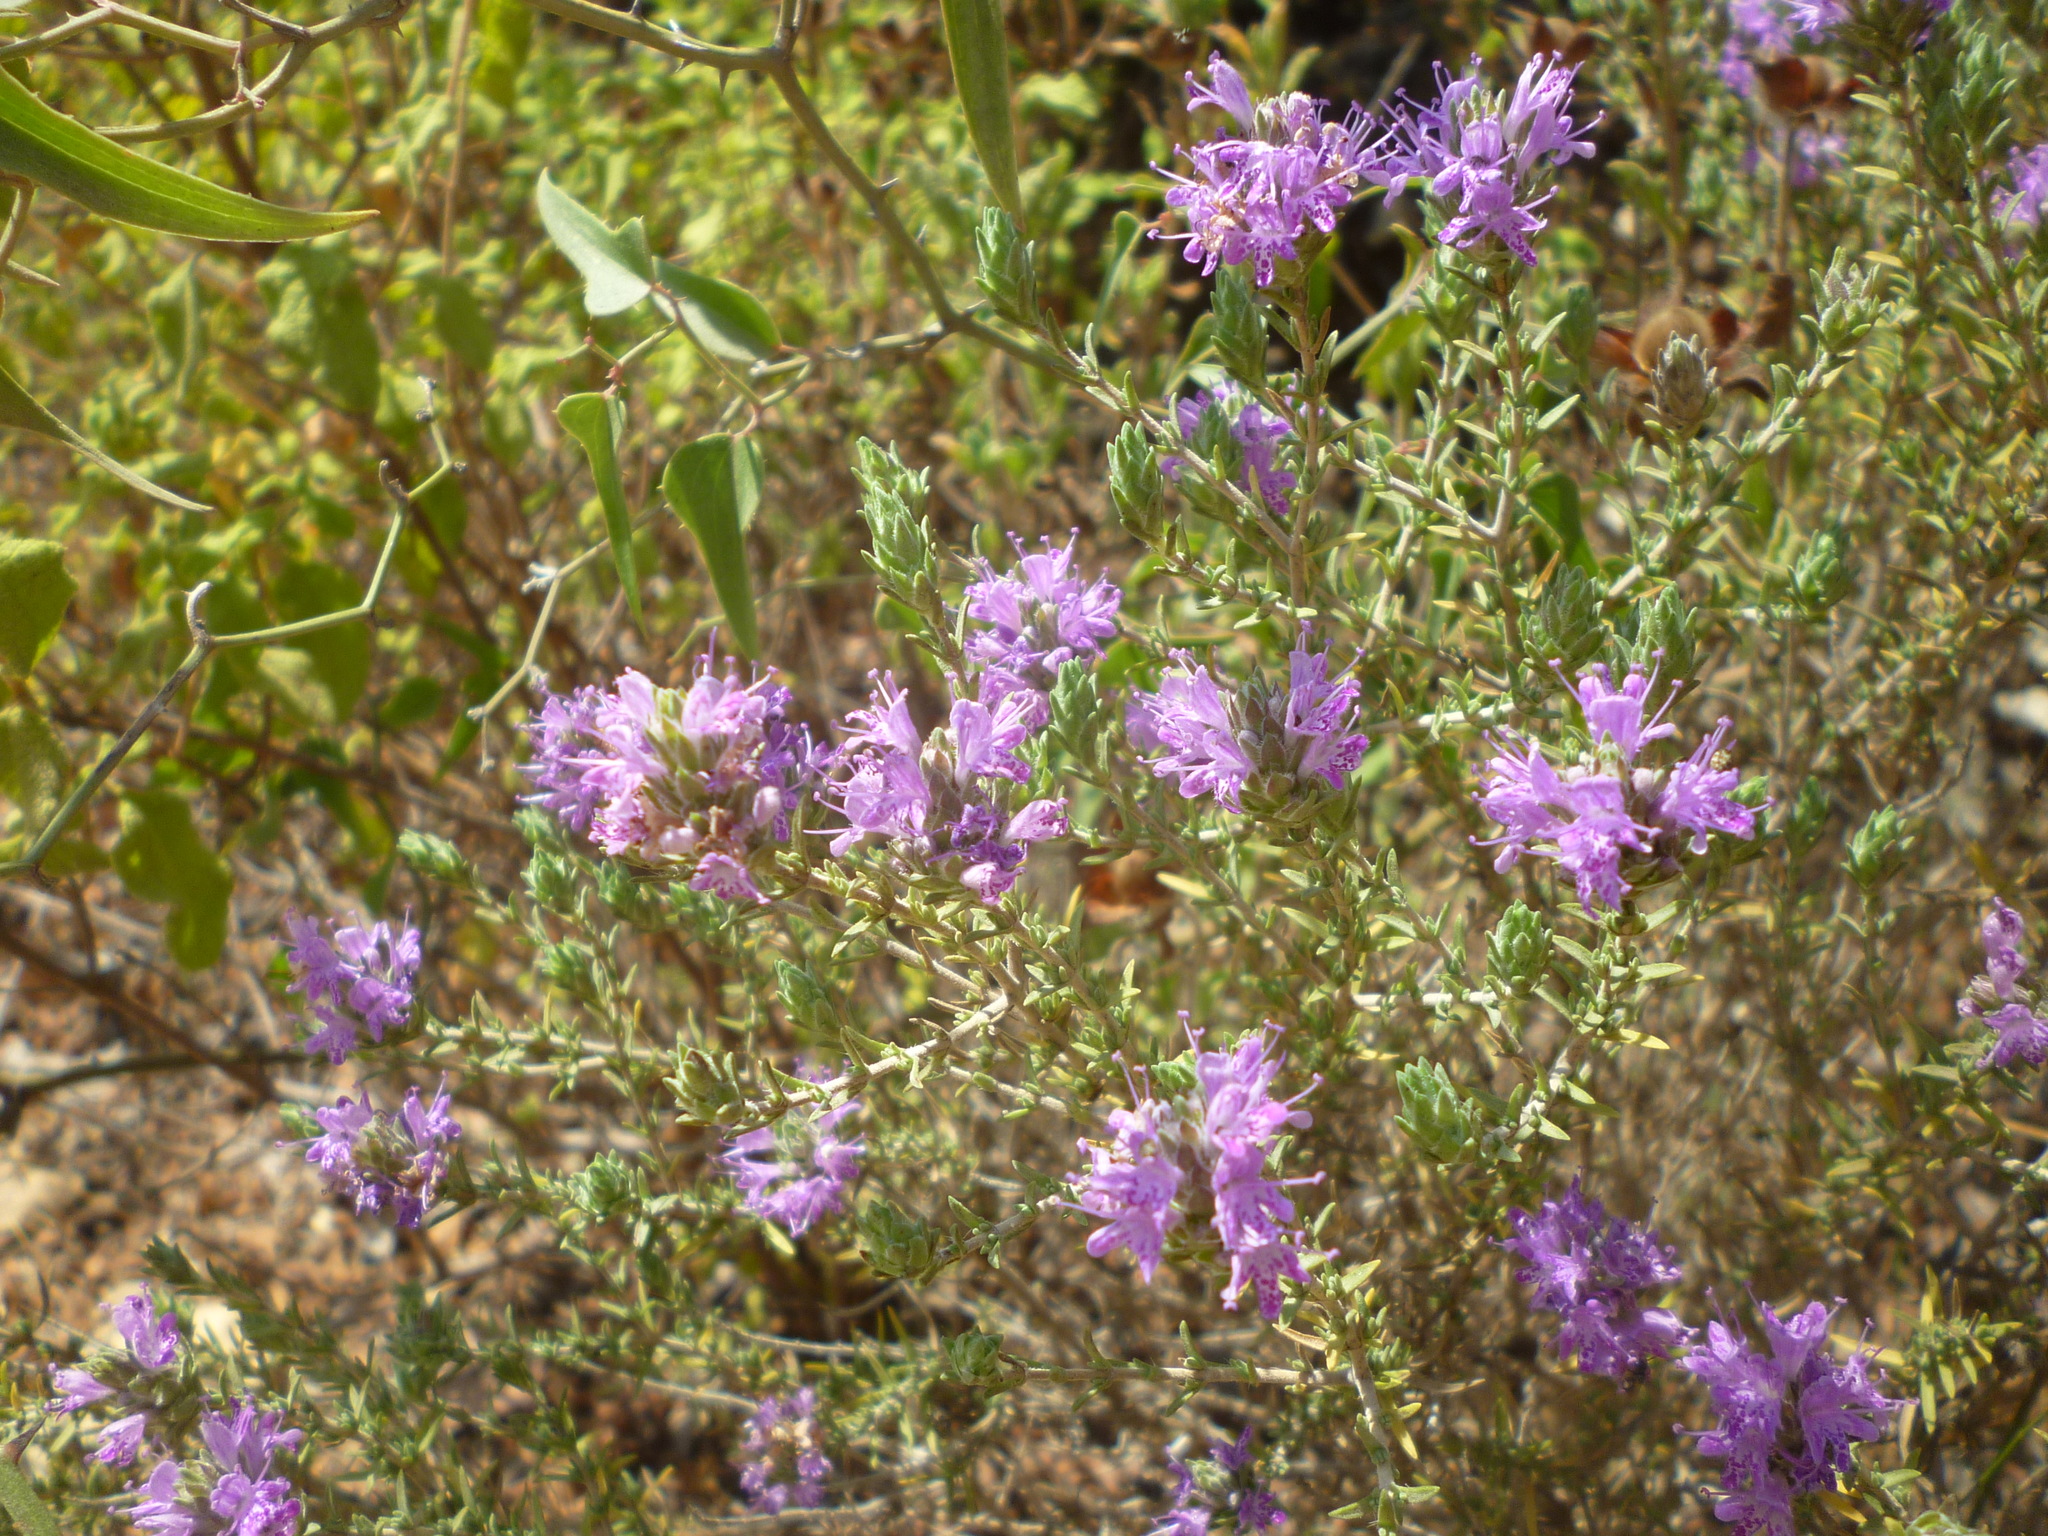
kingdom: Plantae
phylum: Tracheophyta
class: Magnoliopsida
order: Lamiales
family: Lamiaceae
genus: Thymbra
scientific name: Thymbra capitata
